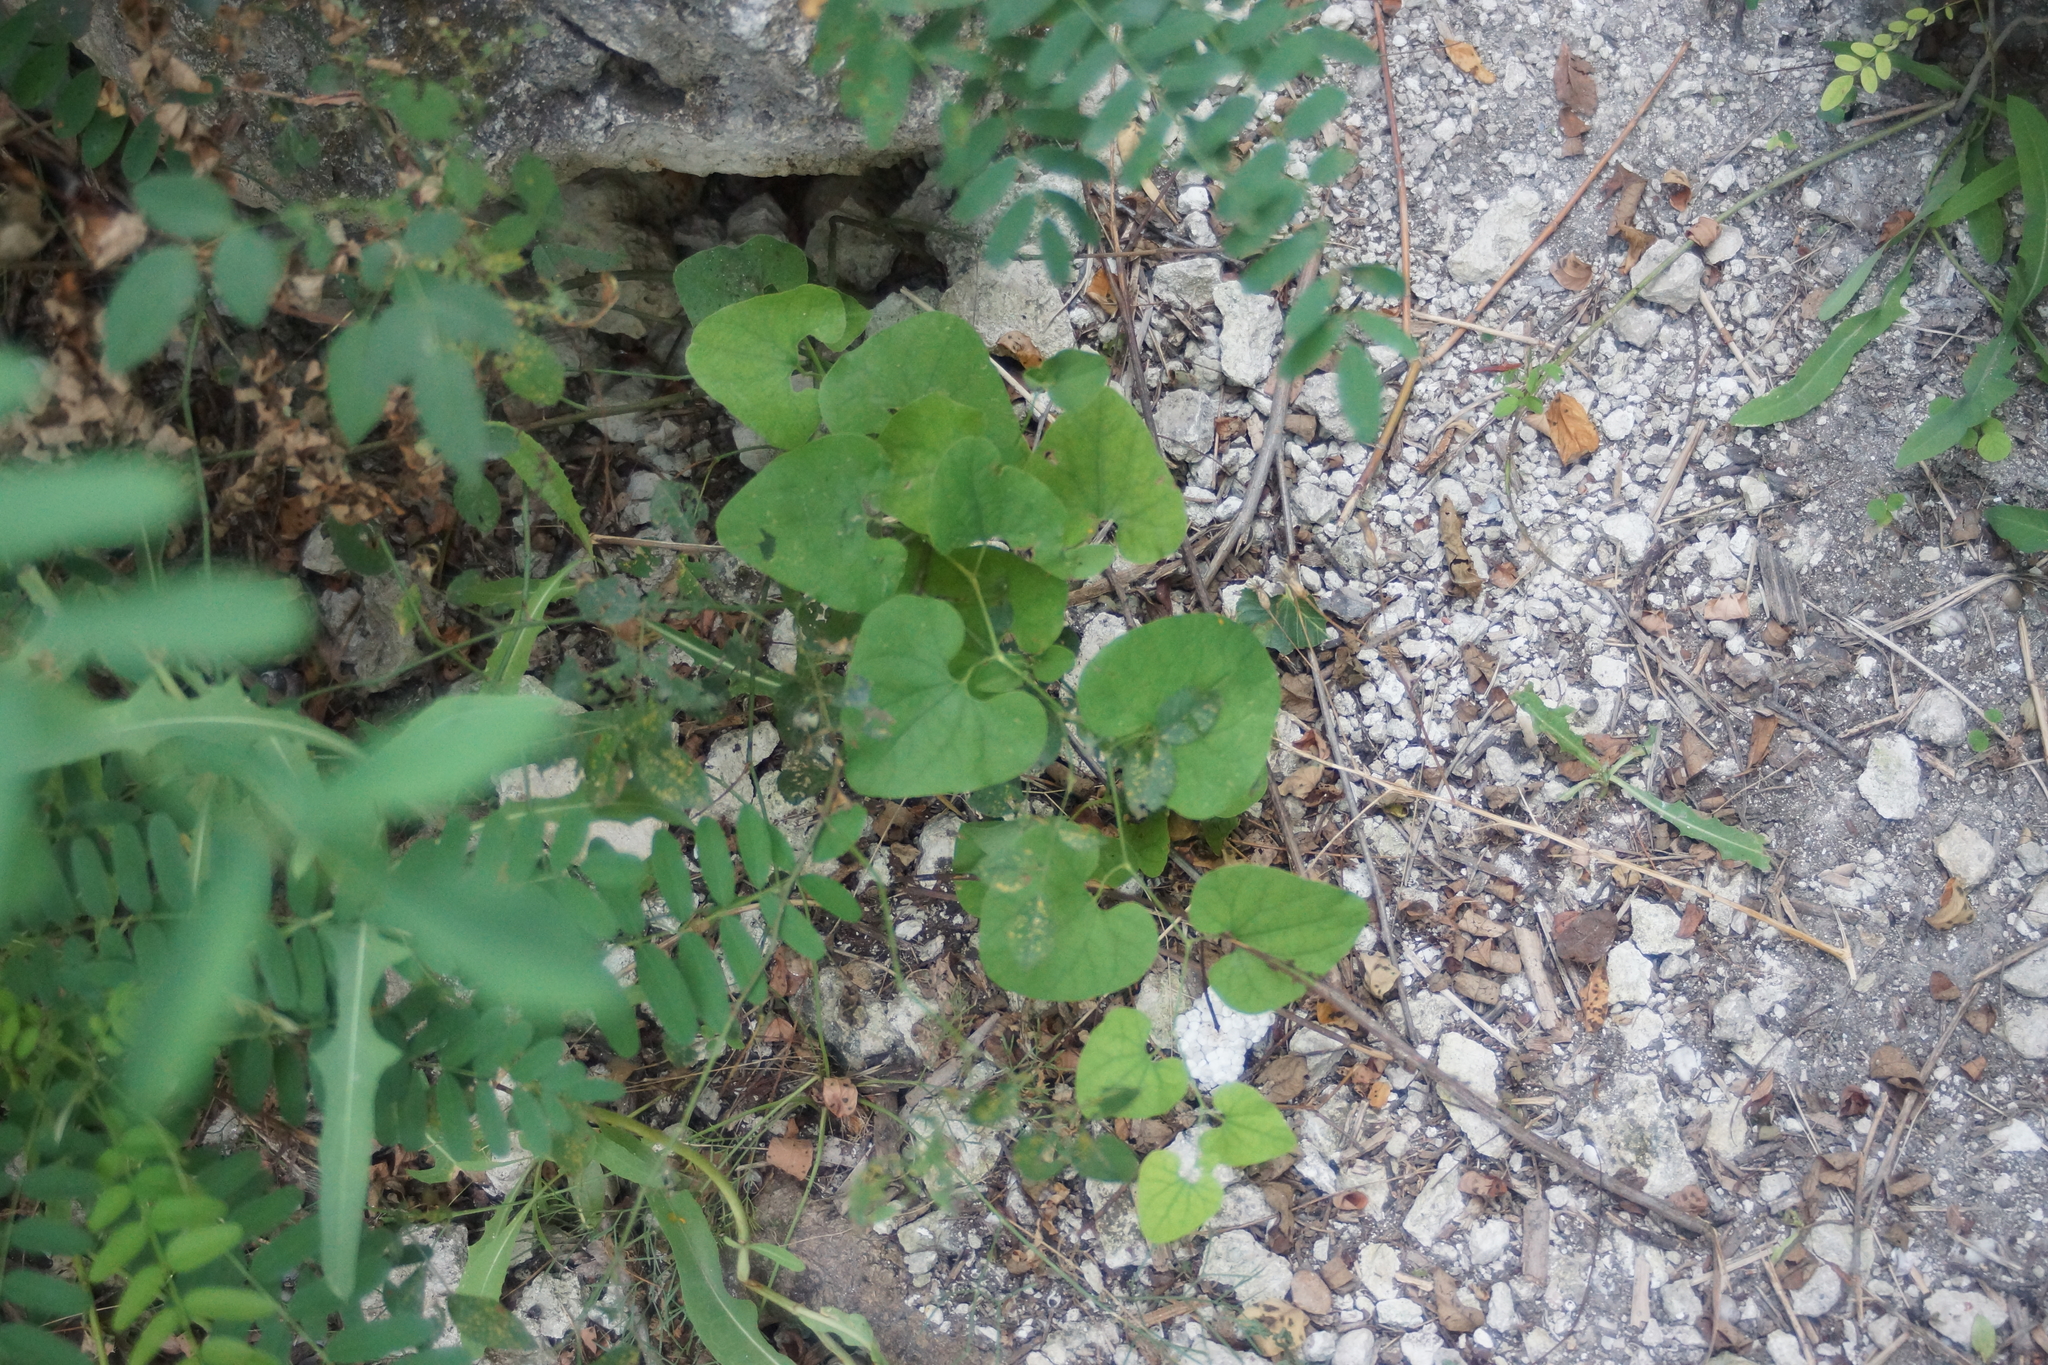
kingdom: Plantae
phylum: Tracheophyta
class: Magnoliopsida
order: Piperales
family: Aristolochiaceae
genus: Aristolochia
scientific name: Aristolochia clematitis
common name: Birthwort
